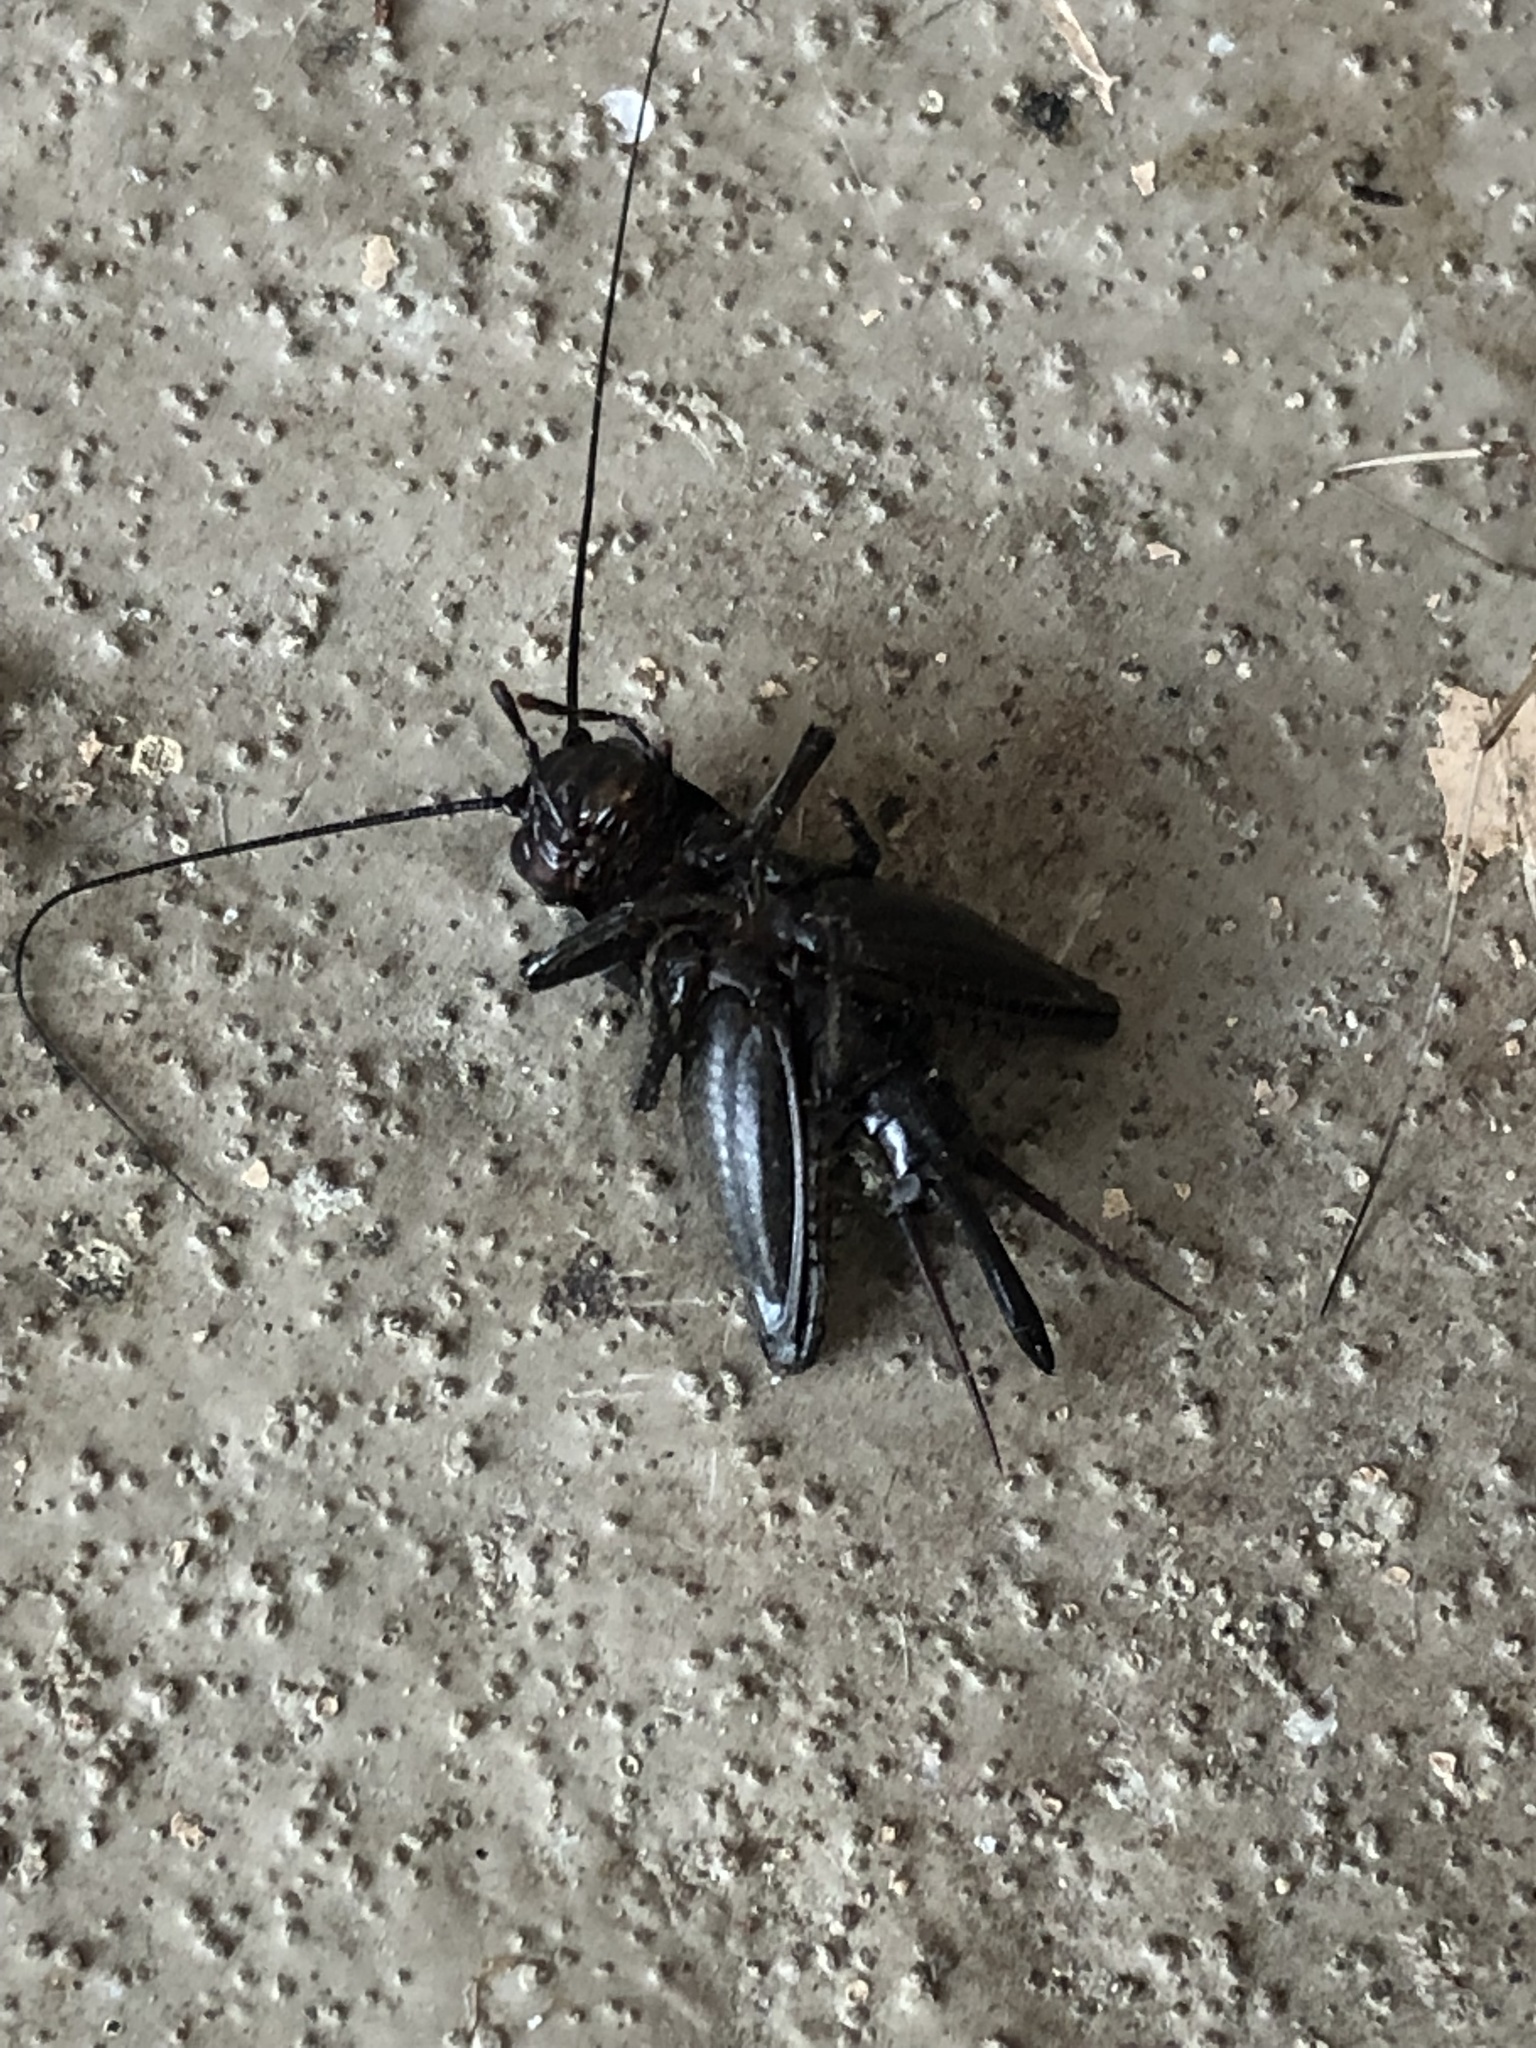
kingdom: Animalia
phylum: Arthropoda
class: Insecta
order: Orthoptera
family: Gryllidae
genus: Gryllus
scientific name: Gryllus pennsylvanicus
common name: Fall field cricket
